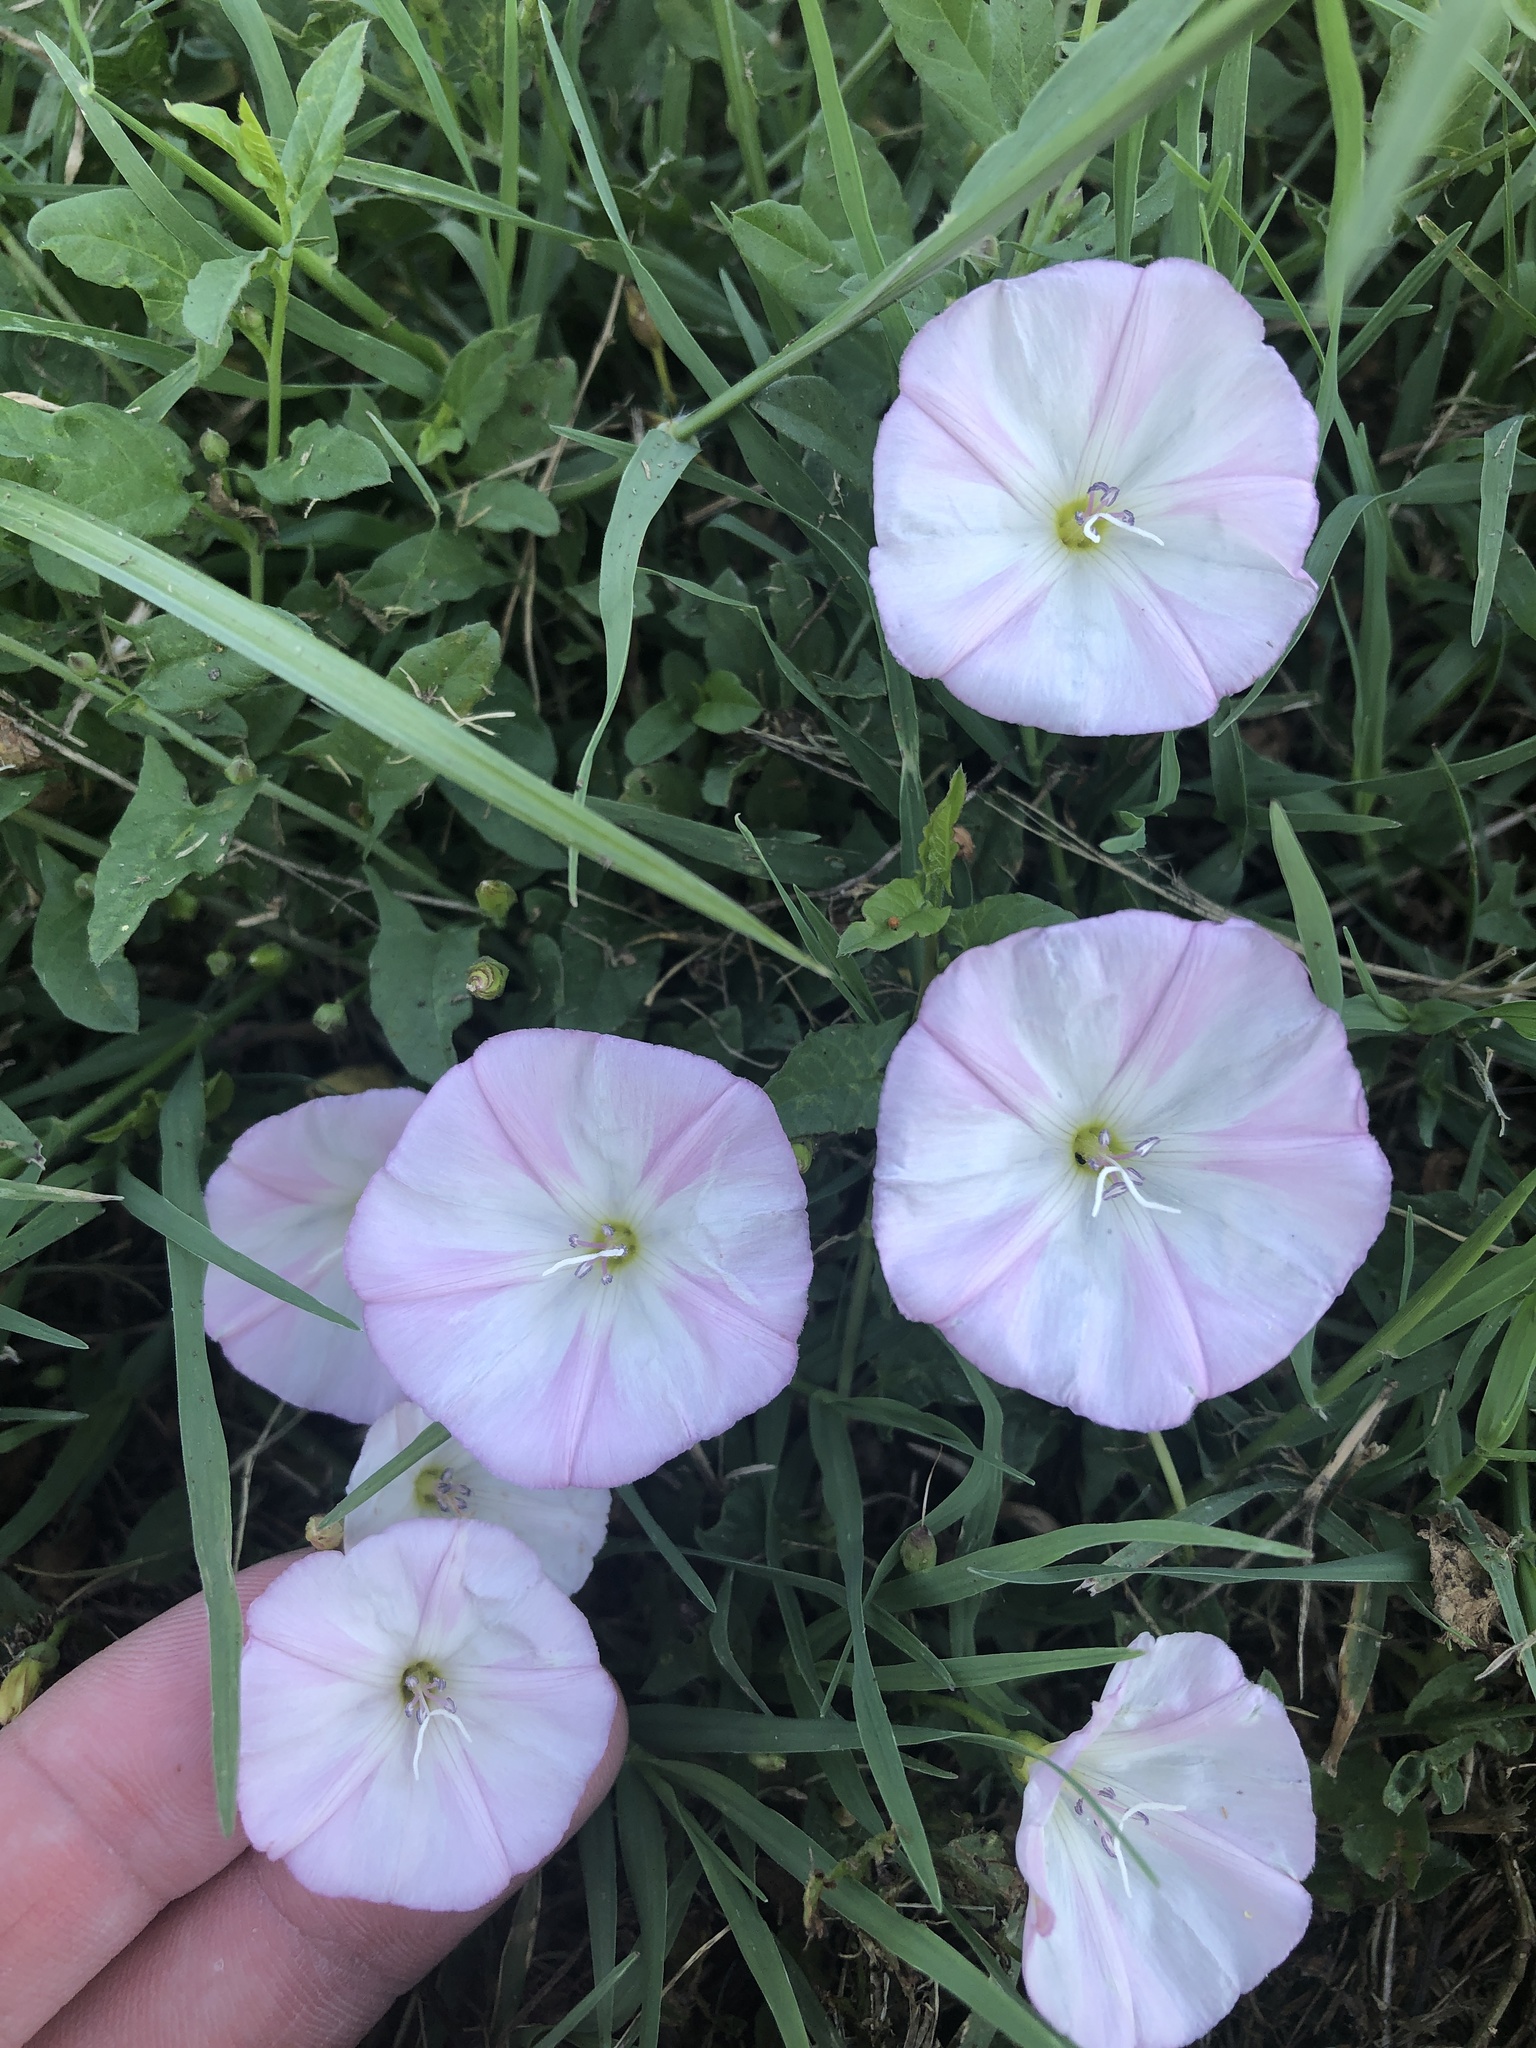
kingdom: Plantae
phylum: Tracheophyta
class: Magnoliopsida
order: Solanales
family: Convolvulaceae
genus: Convolvulus
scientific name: Convolvulus arvensis
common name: Field bindweed
